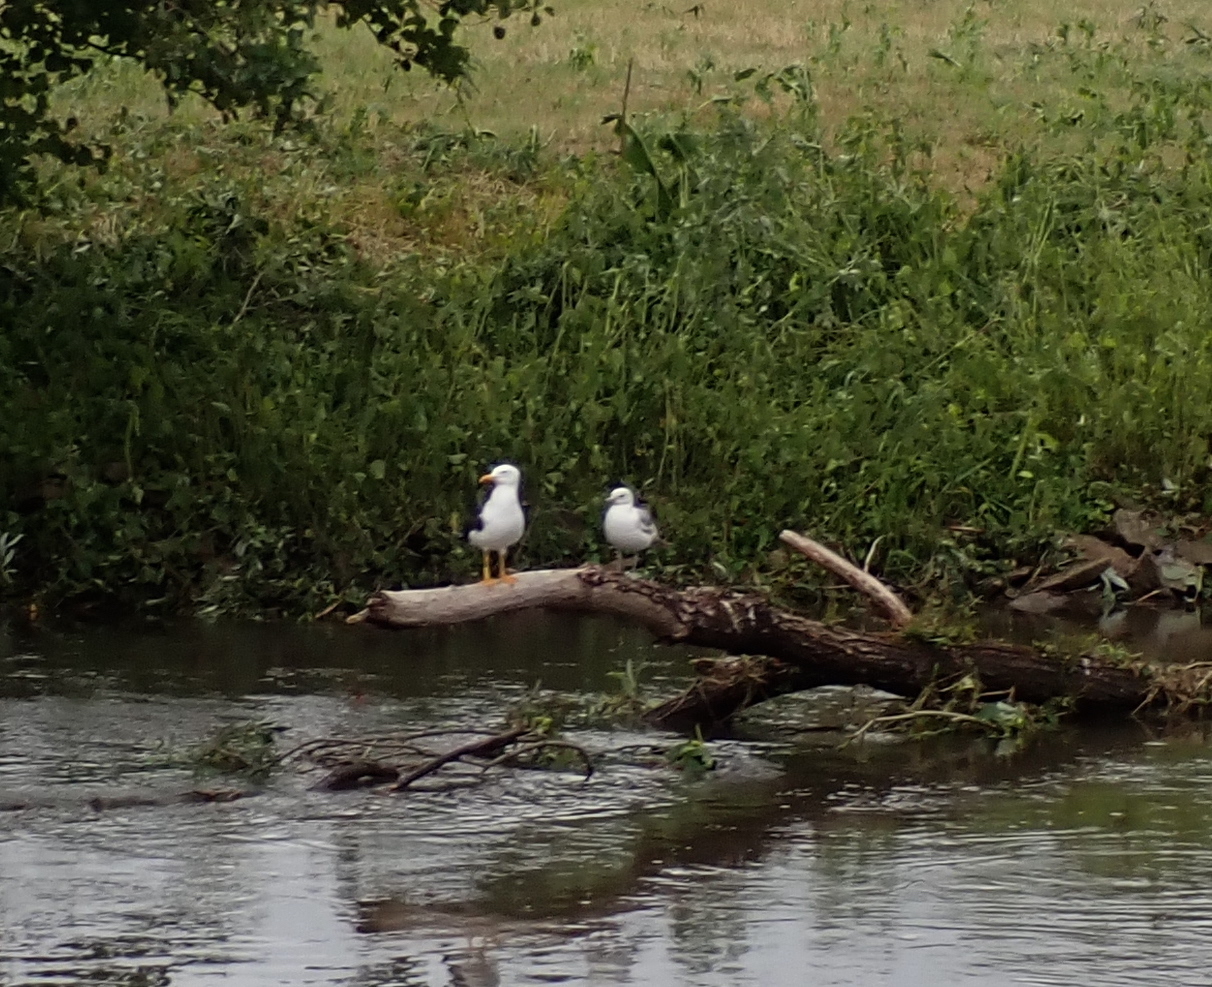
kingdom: Animalia
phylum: Chordata
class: Aves
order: Charadriiformes
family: Laridae
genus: Larus
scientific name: Larus canus
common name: Mew gull
